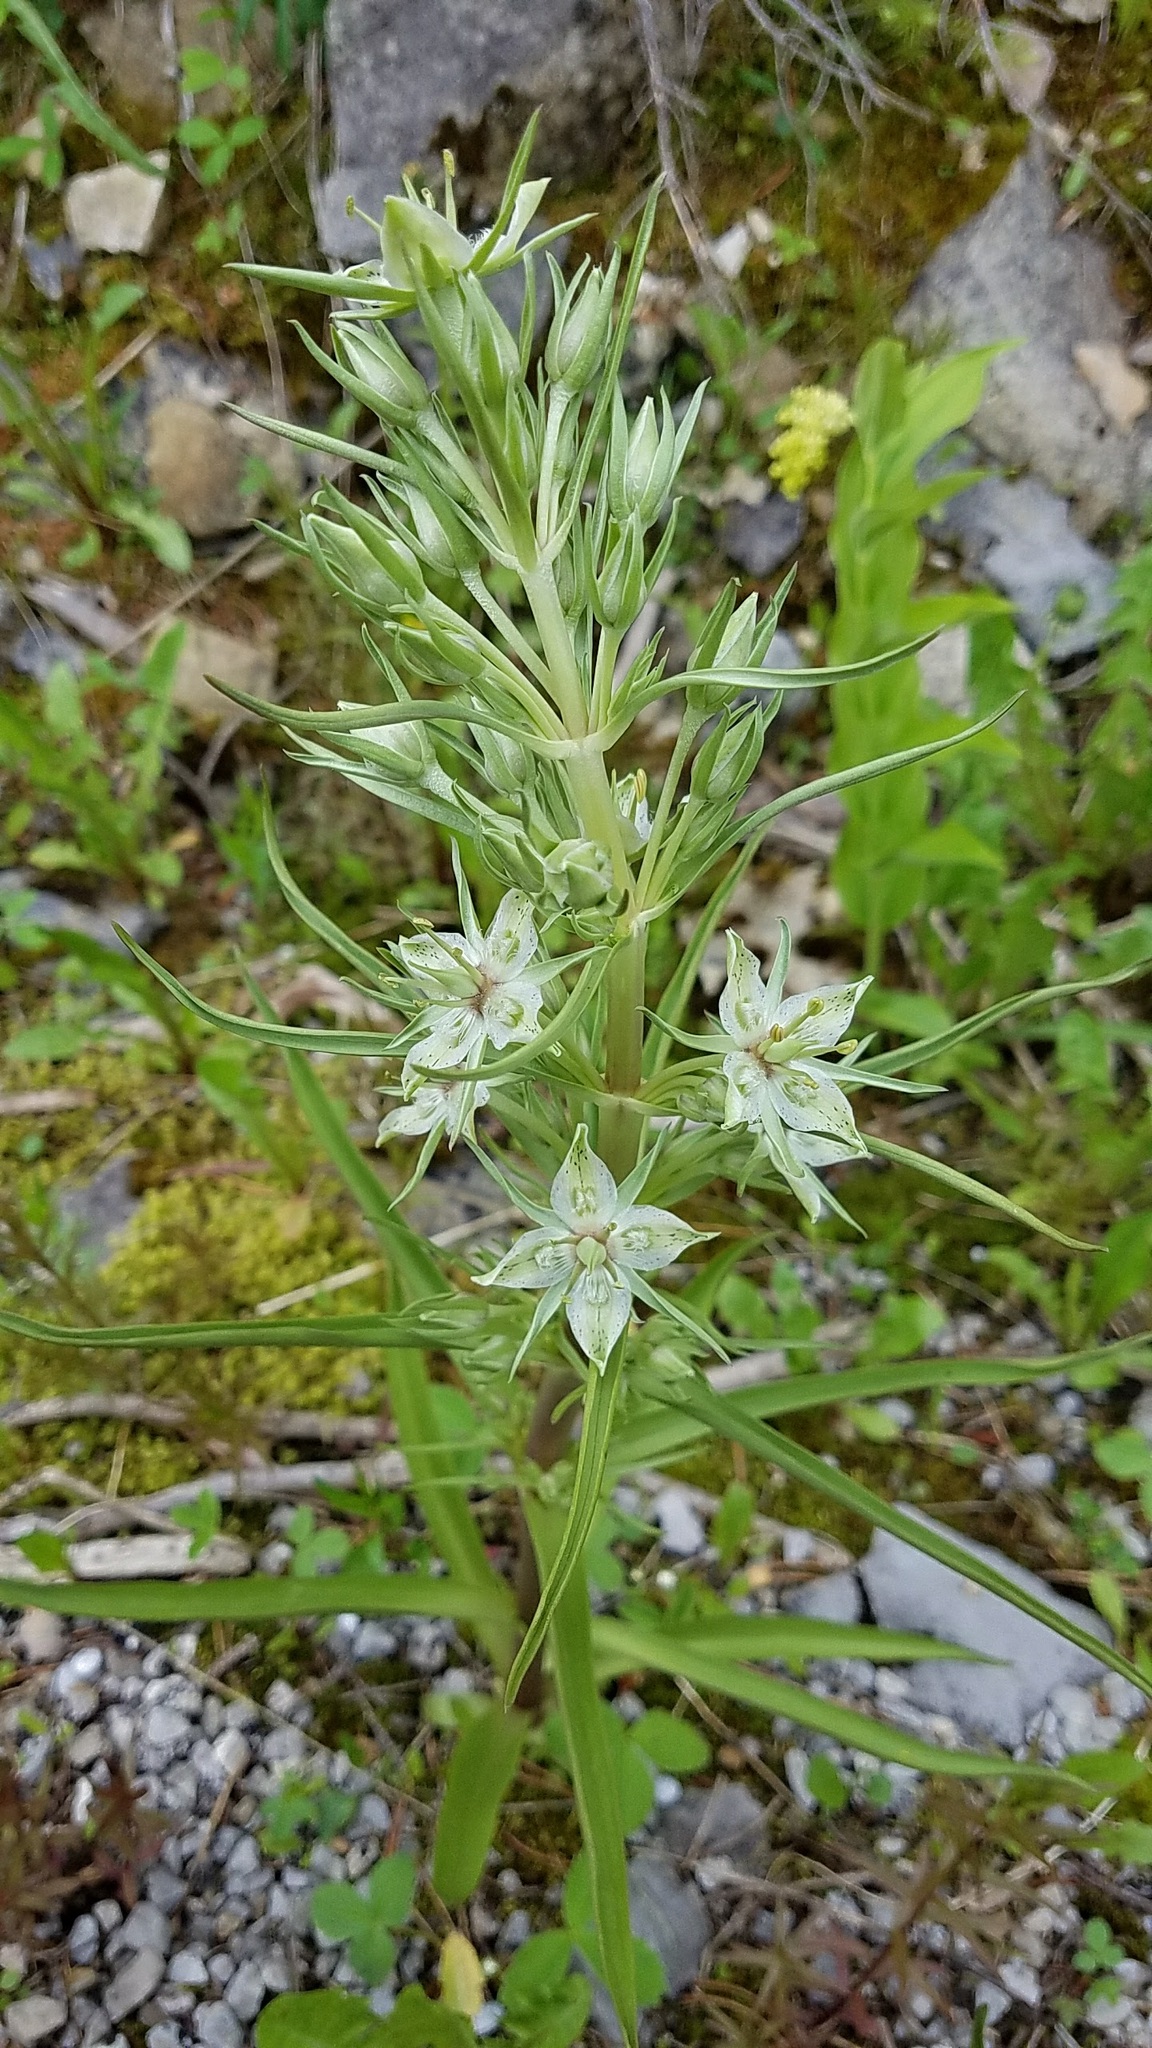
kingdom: Plantae
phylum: Tracheophyta
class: Magnoliopsida
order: Gentianales
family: Gentianaceae
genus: Frasera
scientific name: Frasera speciosa
